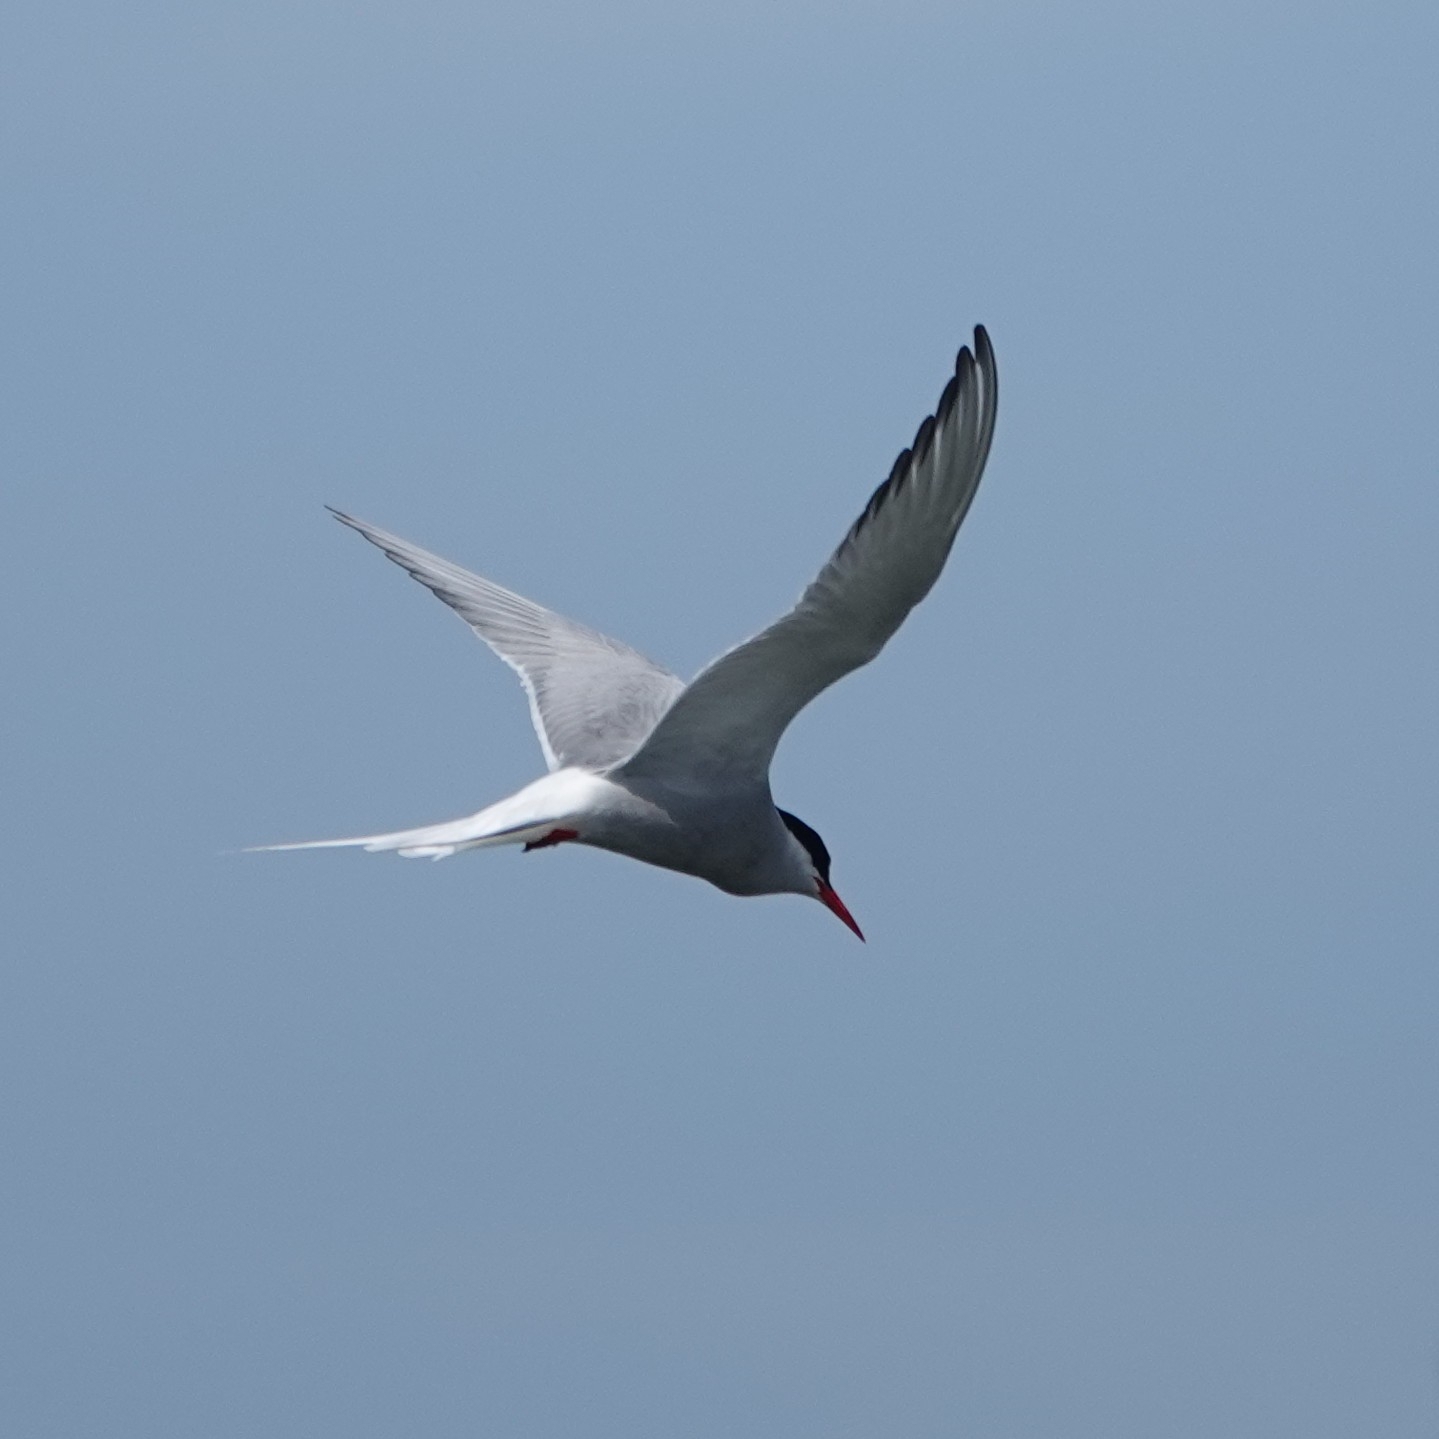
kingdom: Animalia
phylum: Chordata
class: Aves
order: Charadriiformes
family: Laridae
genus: Sterna
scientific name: Sterna paradisaea
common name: Arctic tern
